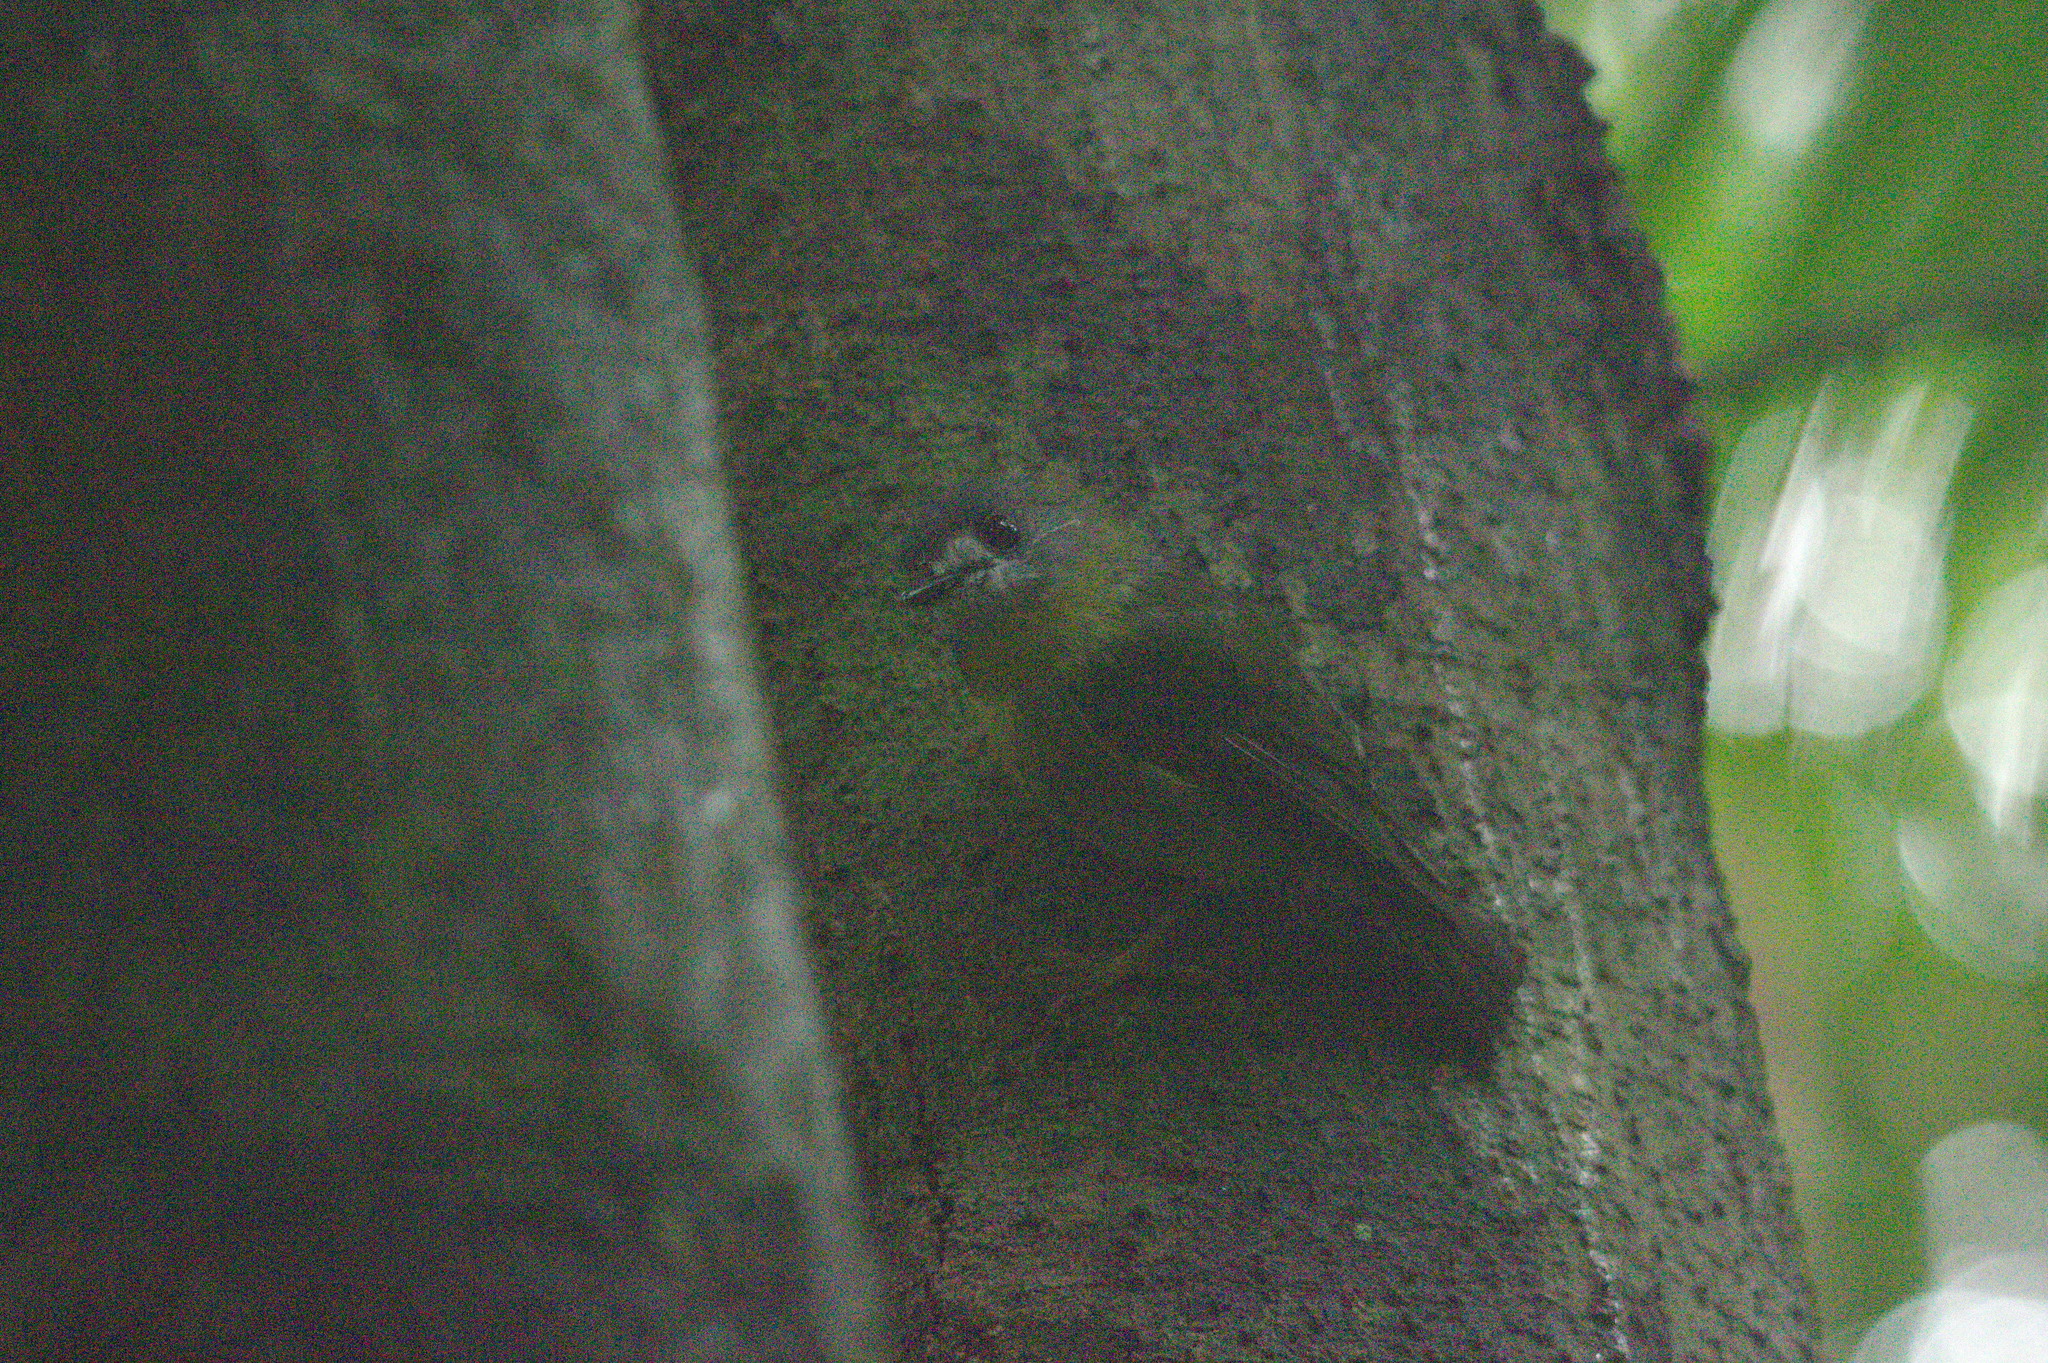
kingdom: Animalia
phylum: Chordata
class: Aves
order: Passeriformes
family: Petroicidae
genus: Eopsaltria
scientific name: Eopsaltria
